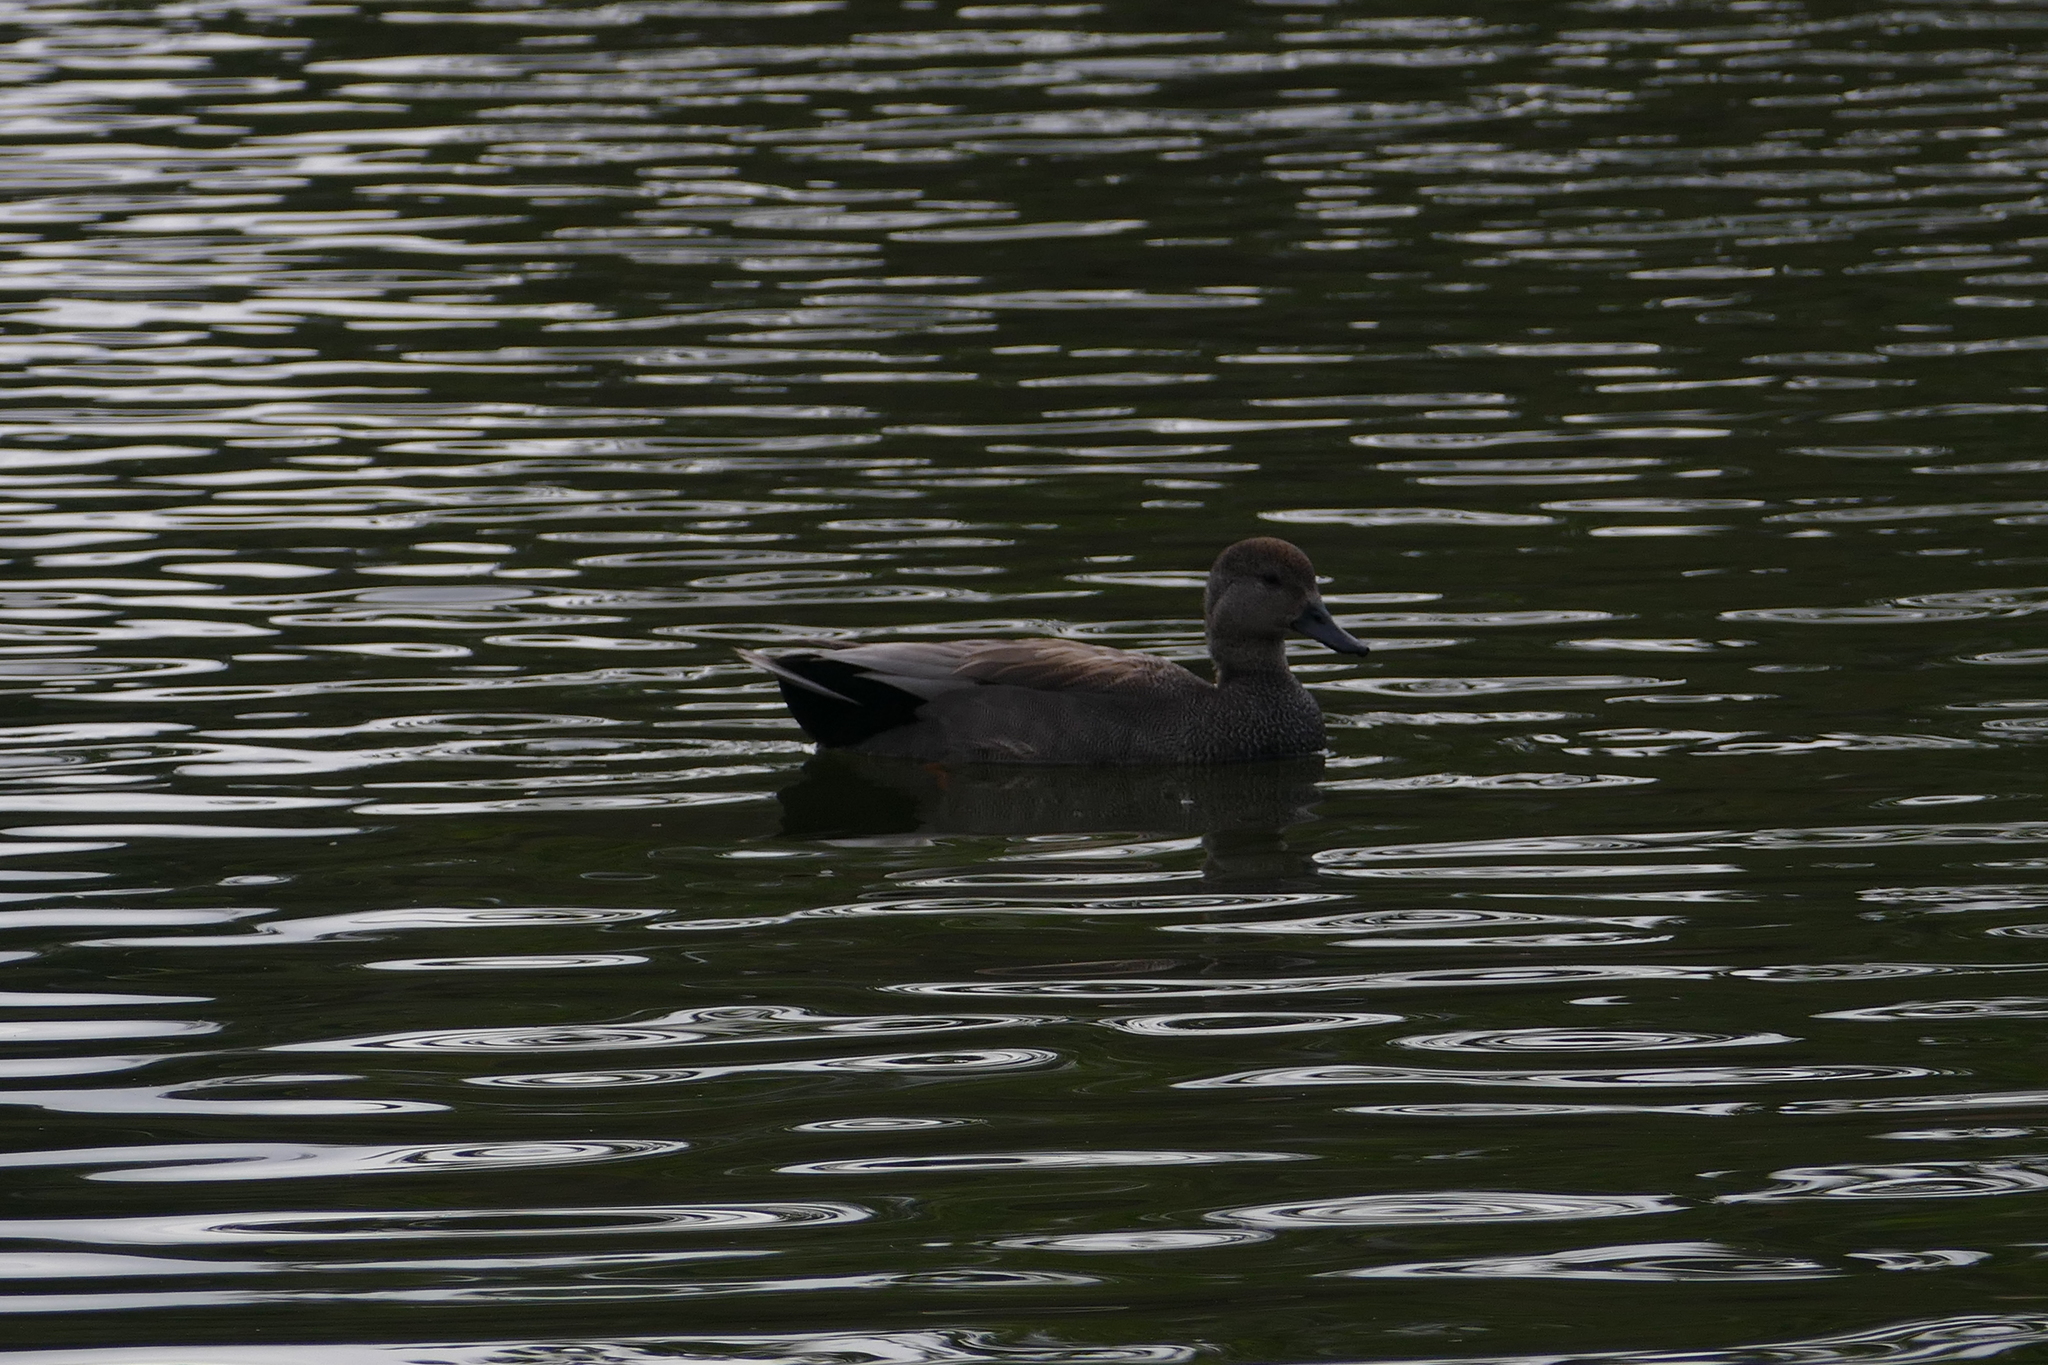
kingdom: Animalia
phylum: Chordata
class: Aves
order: Anseriformes
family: Anatidae
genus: Mareca
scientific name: Mareca strepera
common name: Gadwall
